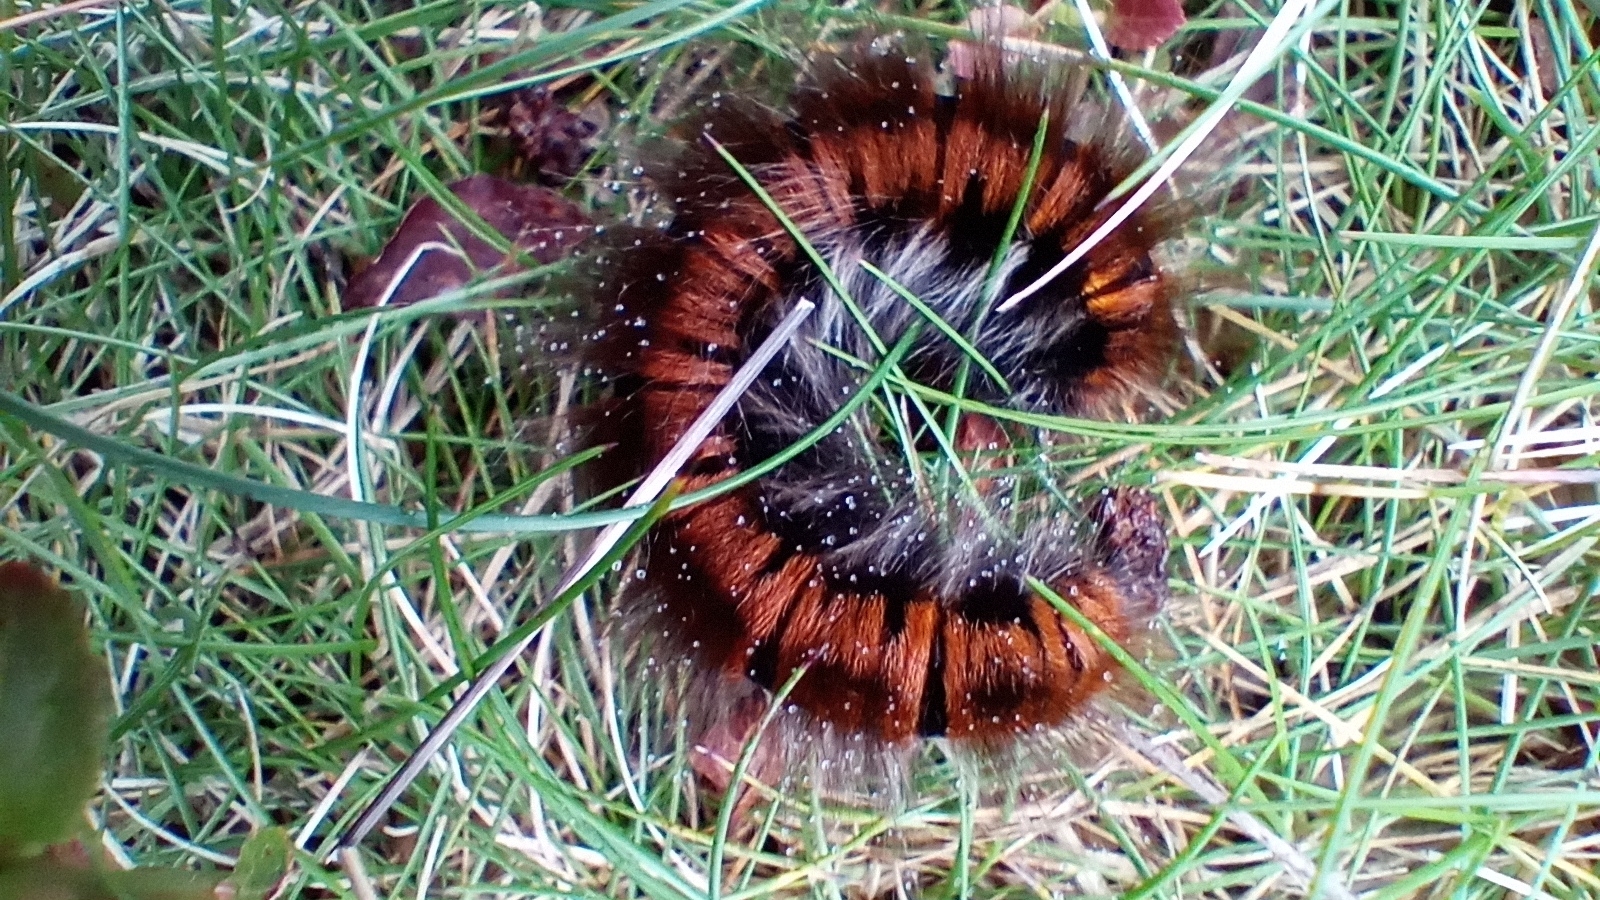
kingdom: Animalia
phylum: Arthropoda
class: Insecta
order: Lepidoptera
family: Lasiocampidae
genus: Macrothylacia
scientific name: Macrothylacia rubi
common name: Fox moth
